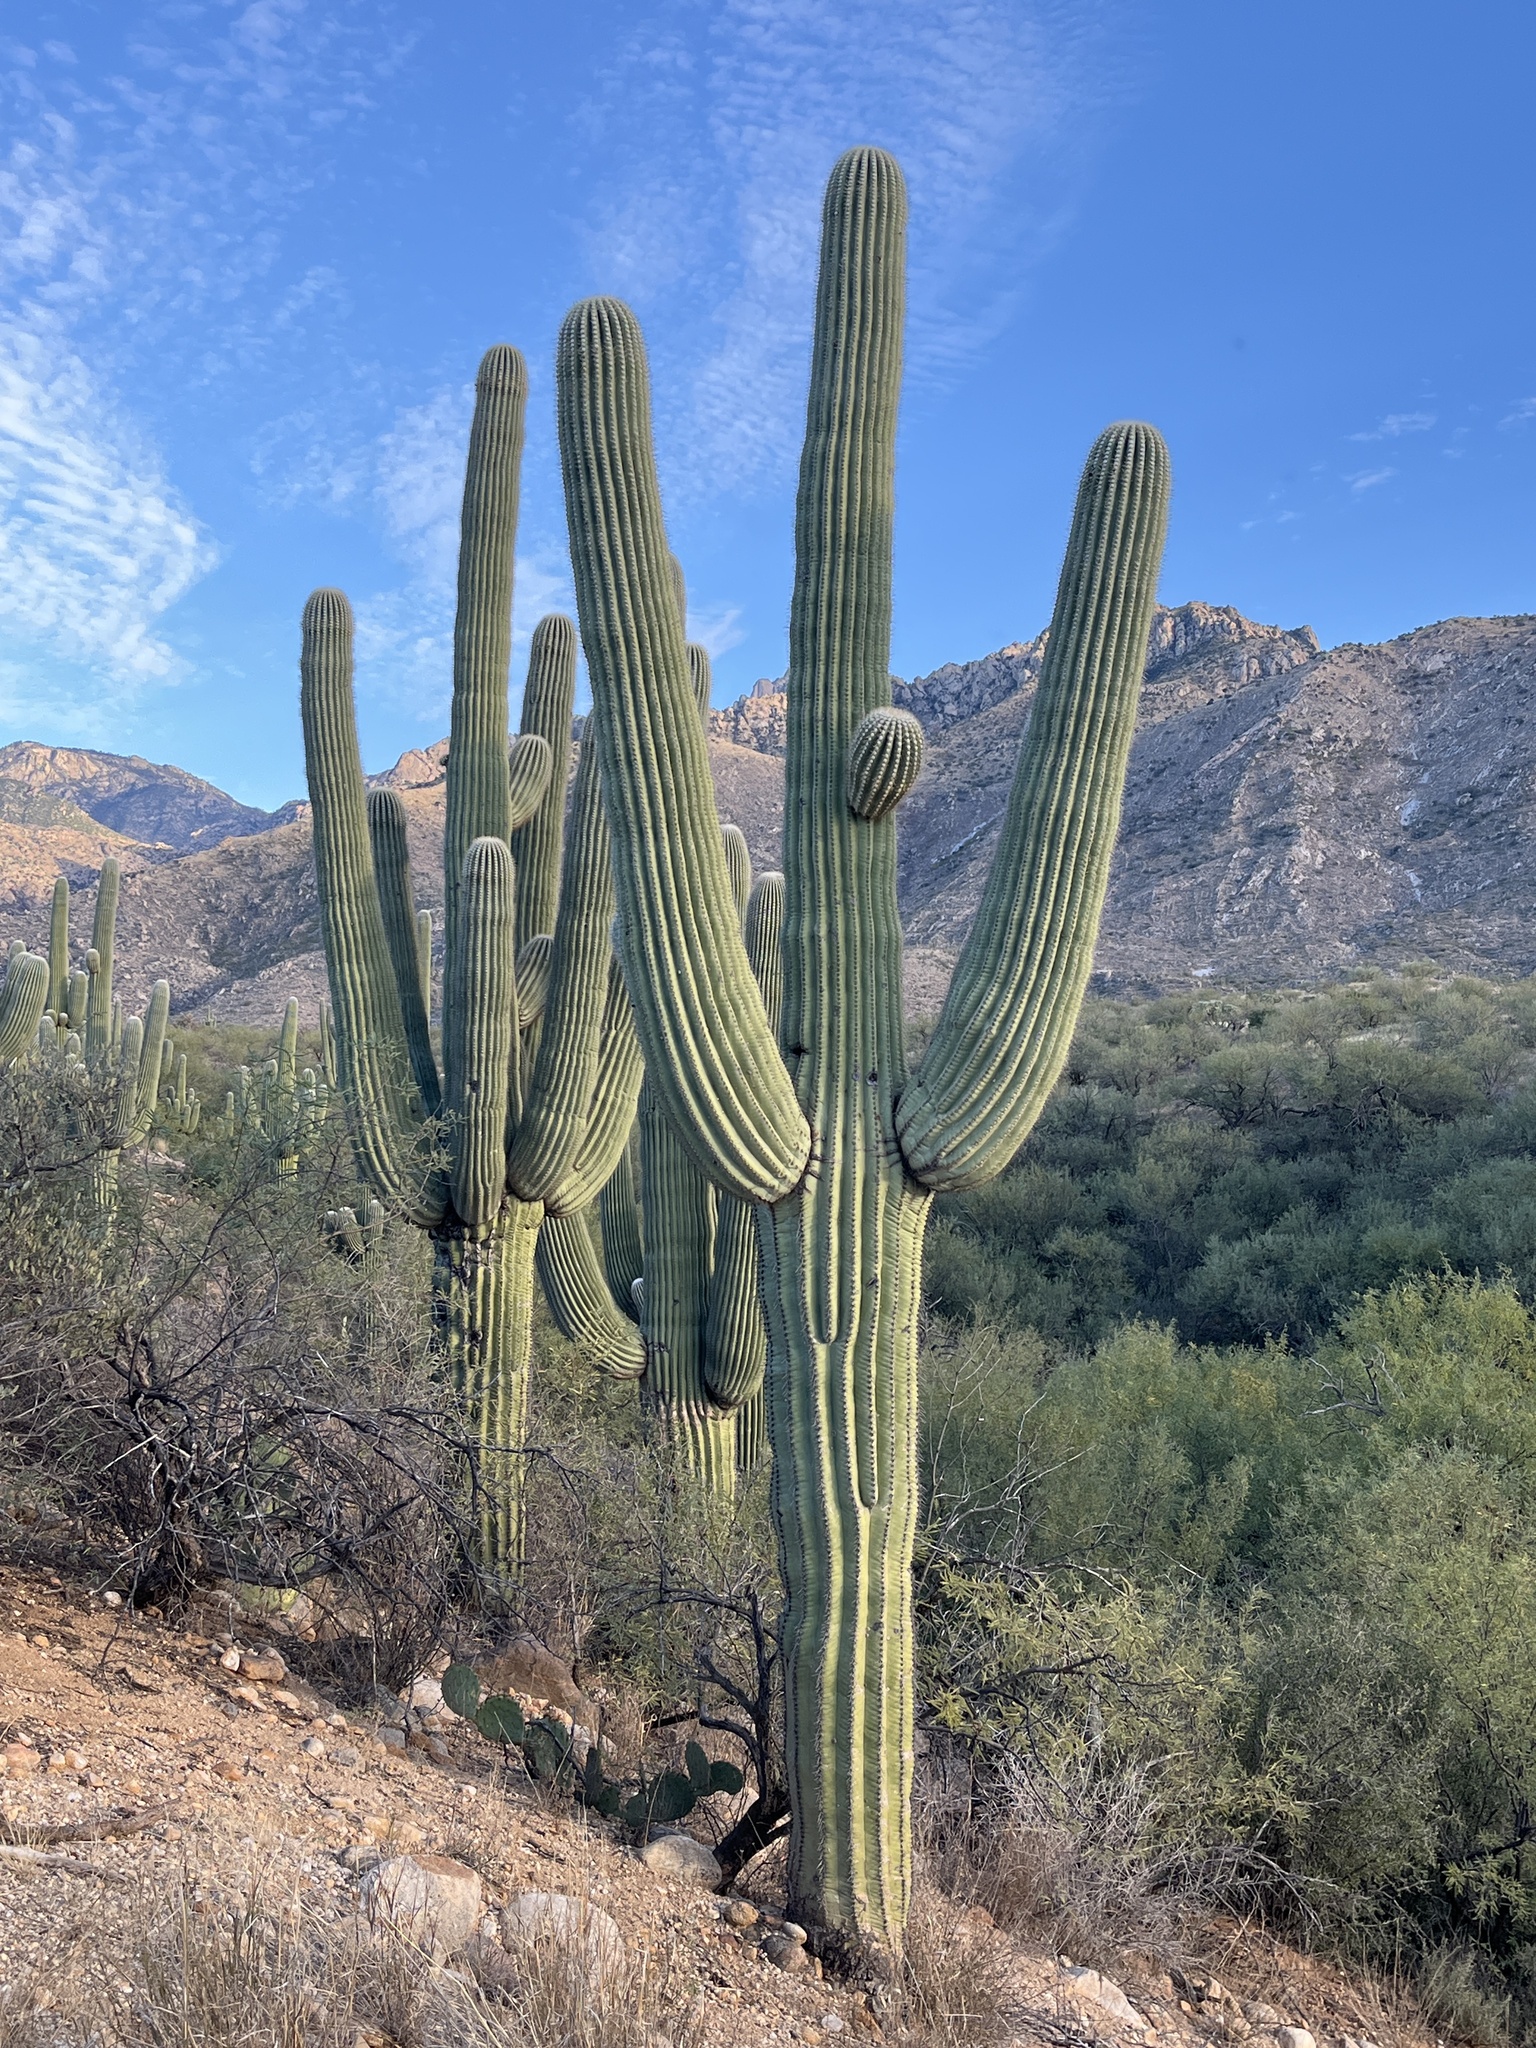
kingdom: Plantae
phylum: Tracheophyta
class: Magnoliopsida
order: Caryophyllales
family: Cactaceae
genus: Carnegiea
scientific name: Carnegiea gigantea
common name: Saguaro
